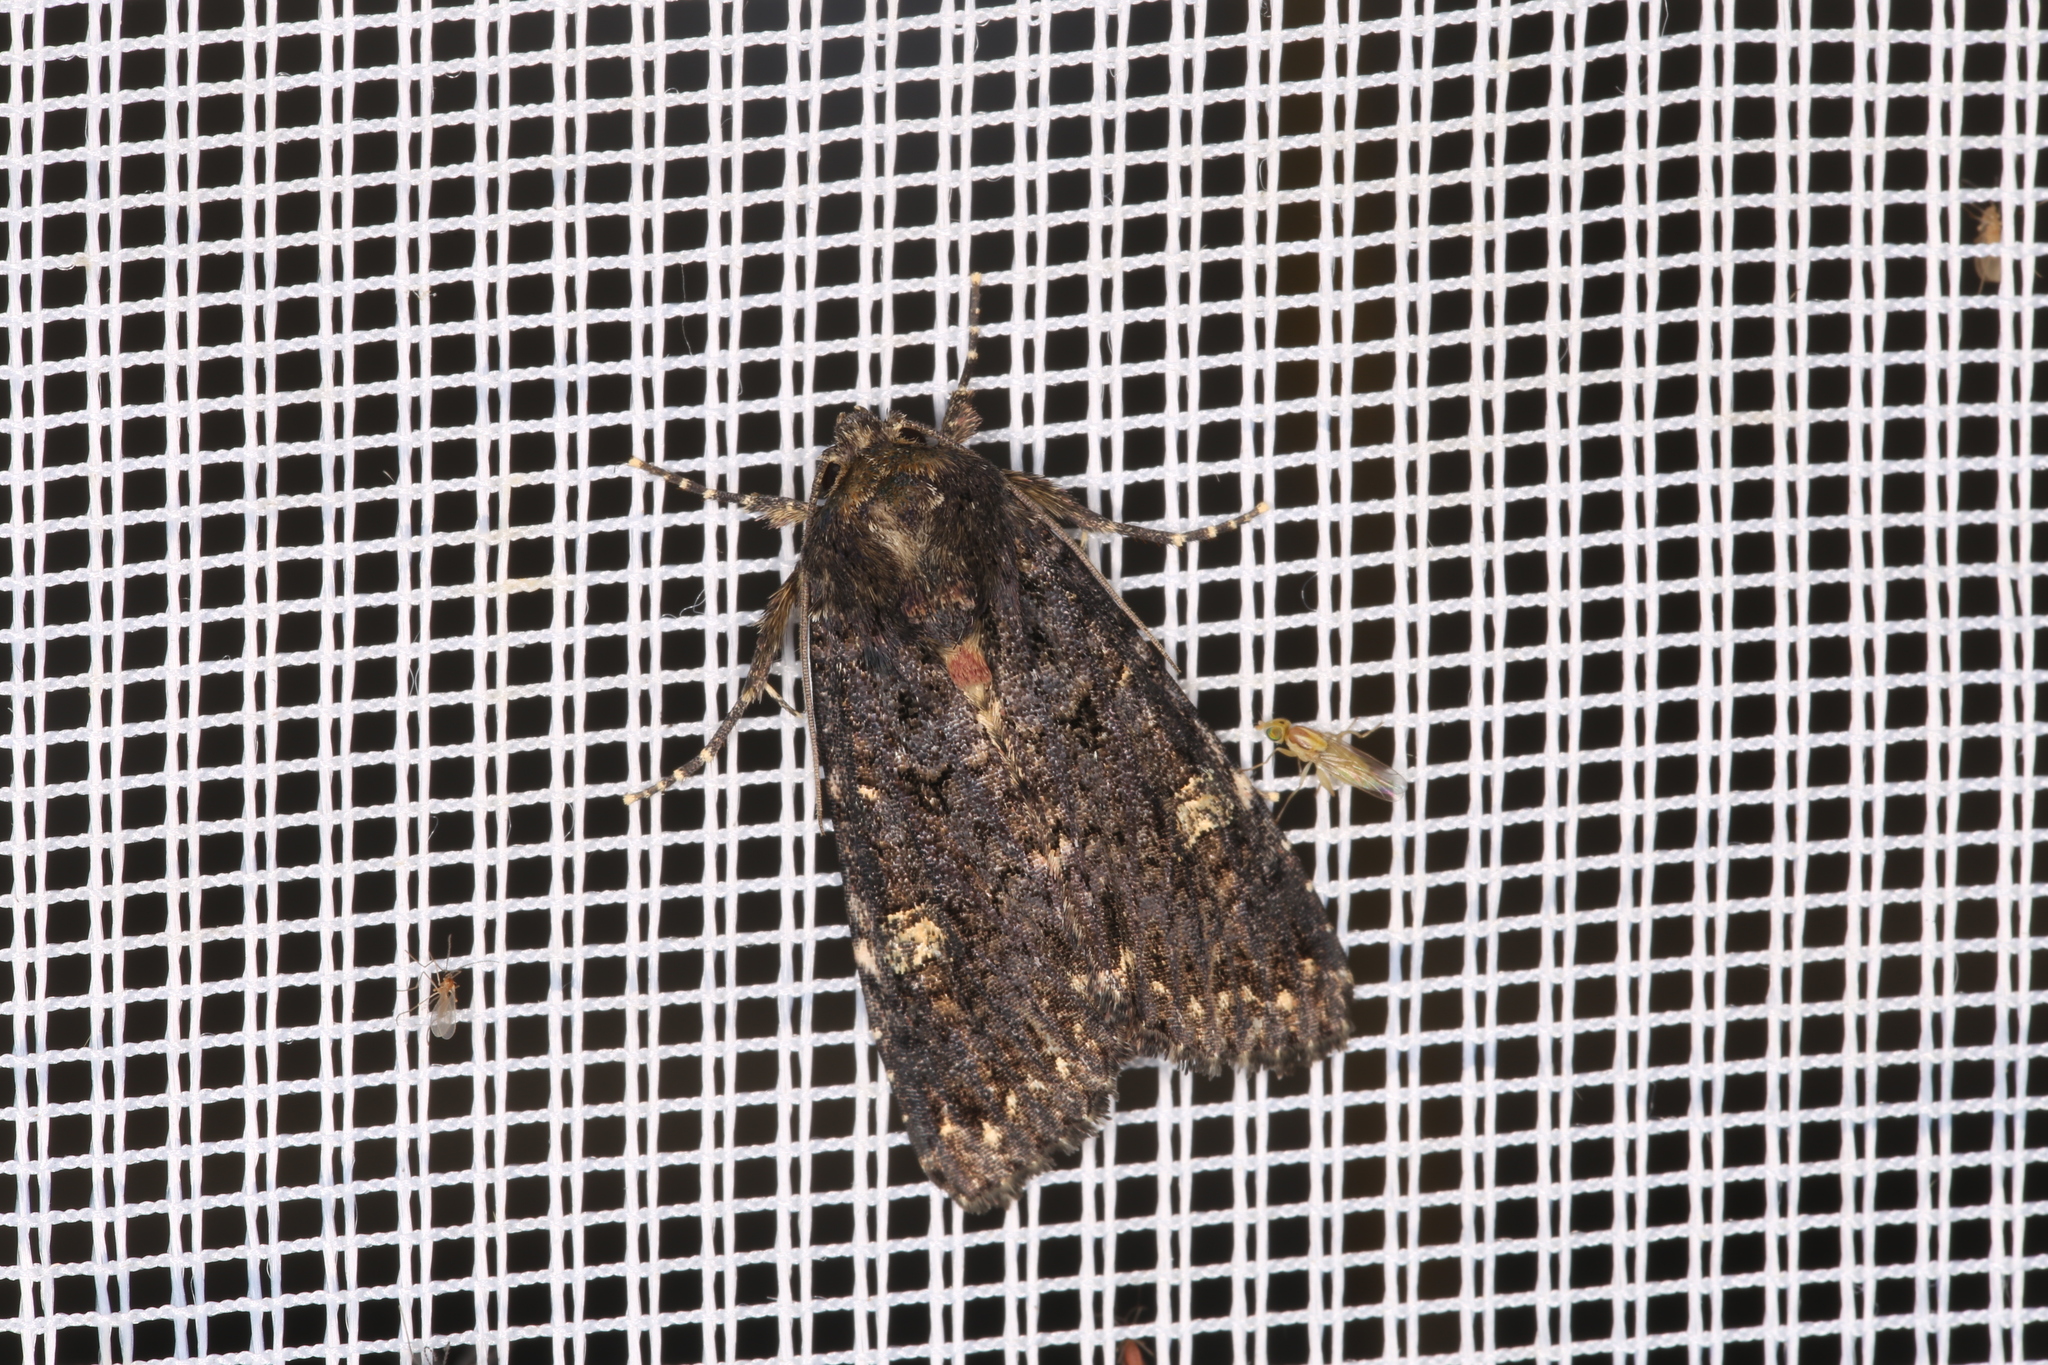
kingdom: Animalia
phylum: Arthropoda
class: Insecta
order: Lepidoptera
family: Noctuidae
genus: Melanchra
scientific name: Melanchra persicariae
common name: Dot moth
